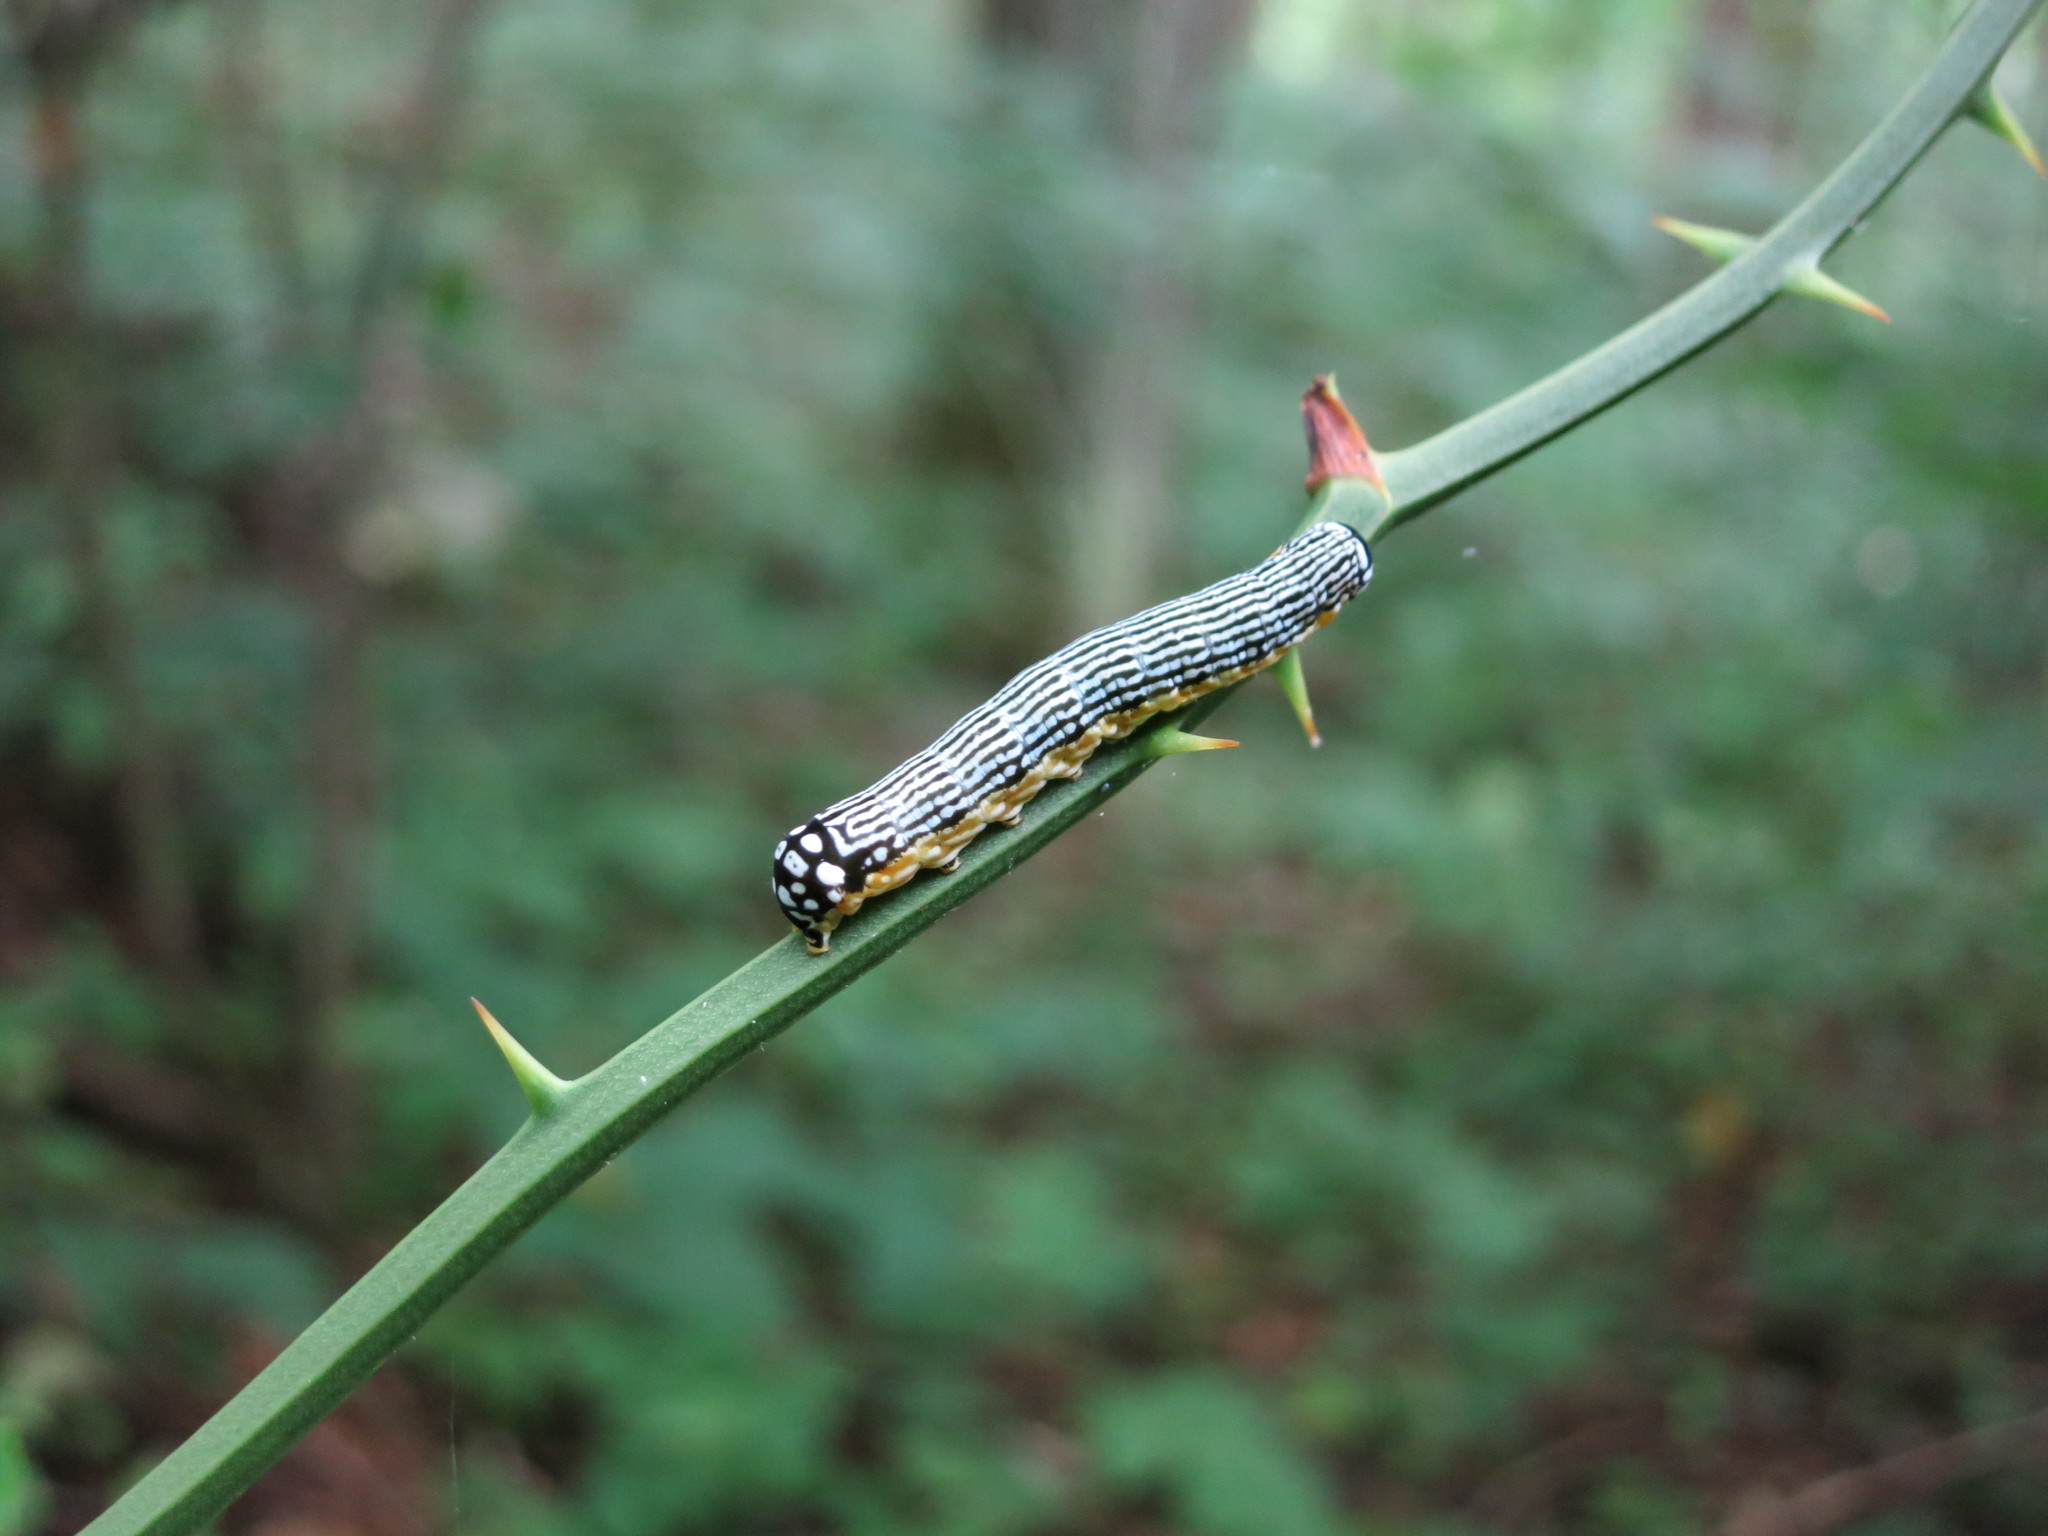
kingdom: Animalia
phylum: Arthropoda
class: Insecta
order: Lepidoptera
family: Noctuidae
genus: Phosphila
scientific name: Phosphila turbulenta
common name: Turbulent phosphila moth
